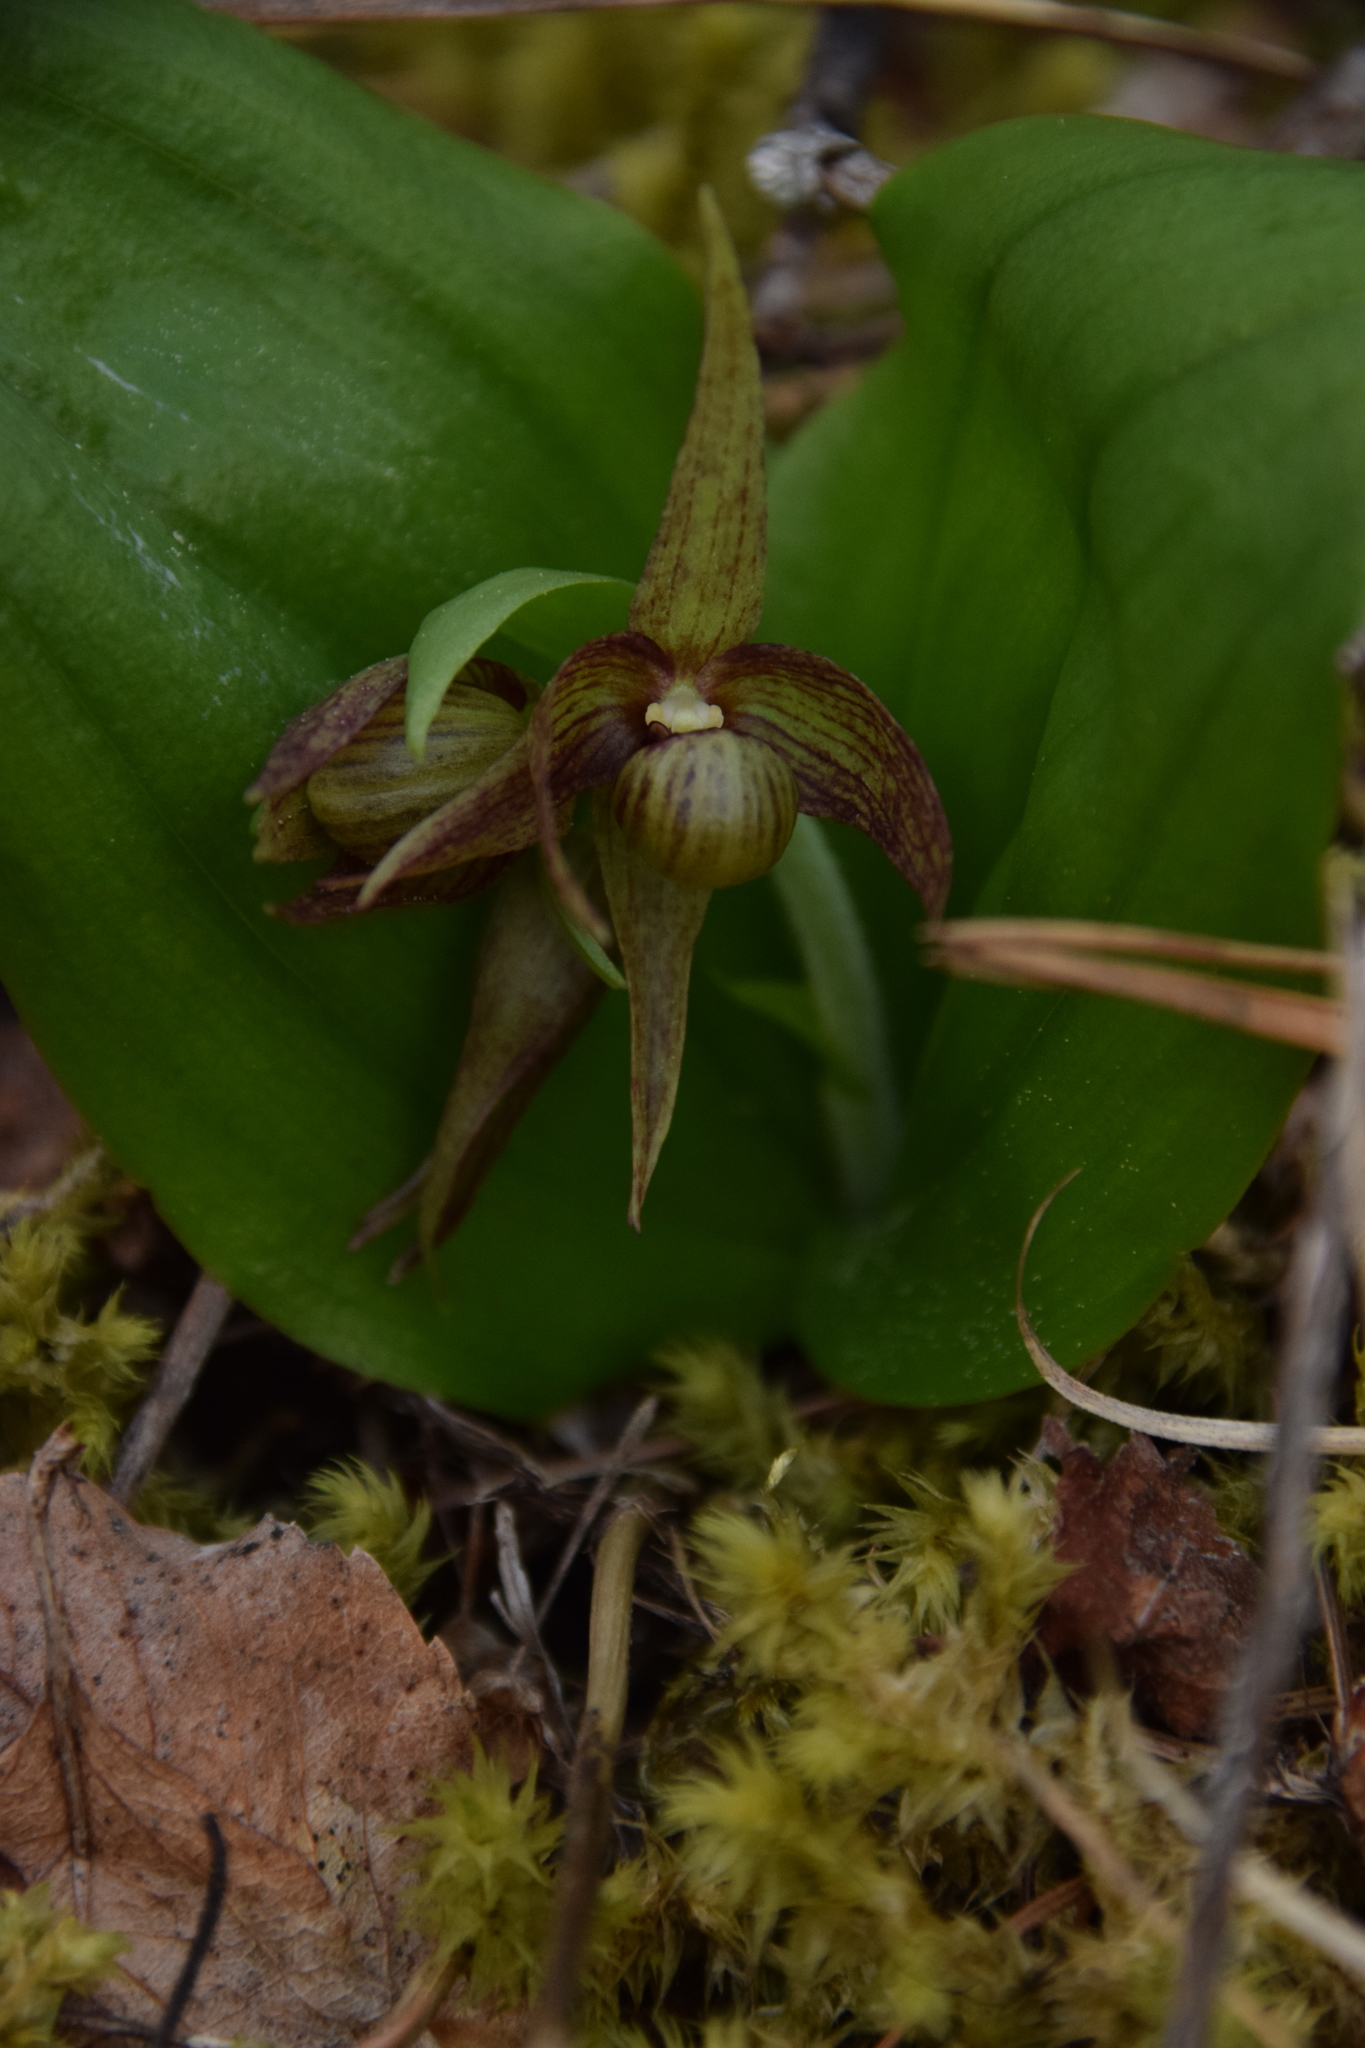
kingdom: Plantae
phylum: Tracheophyta
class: Liliopsida
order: Asparagales
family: Orchidaceae
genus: Cypripedium
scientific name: Cypripedium fasciculatum
